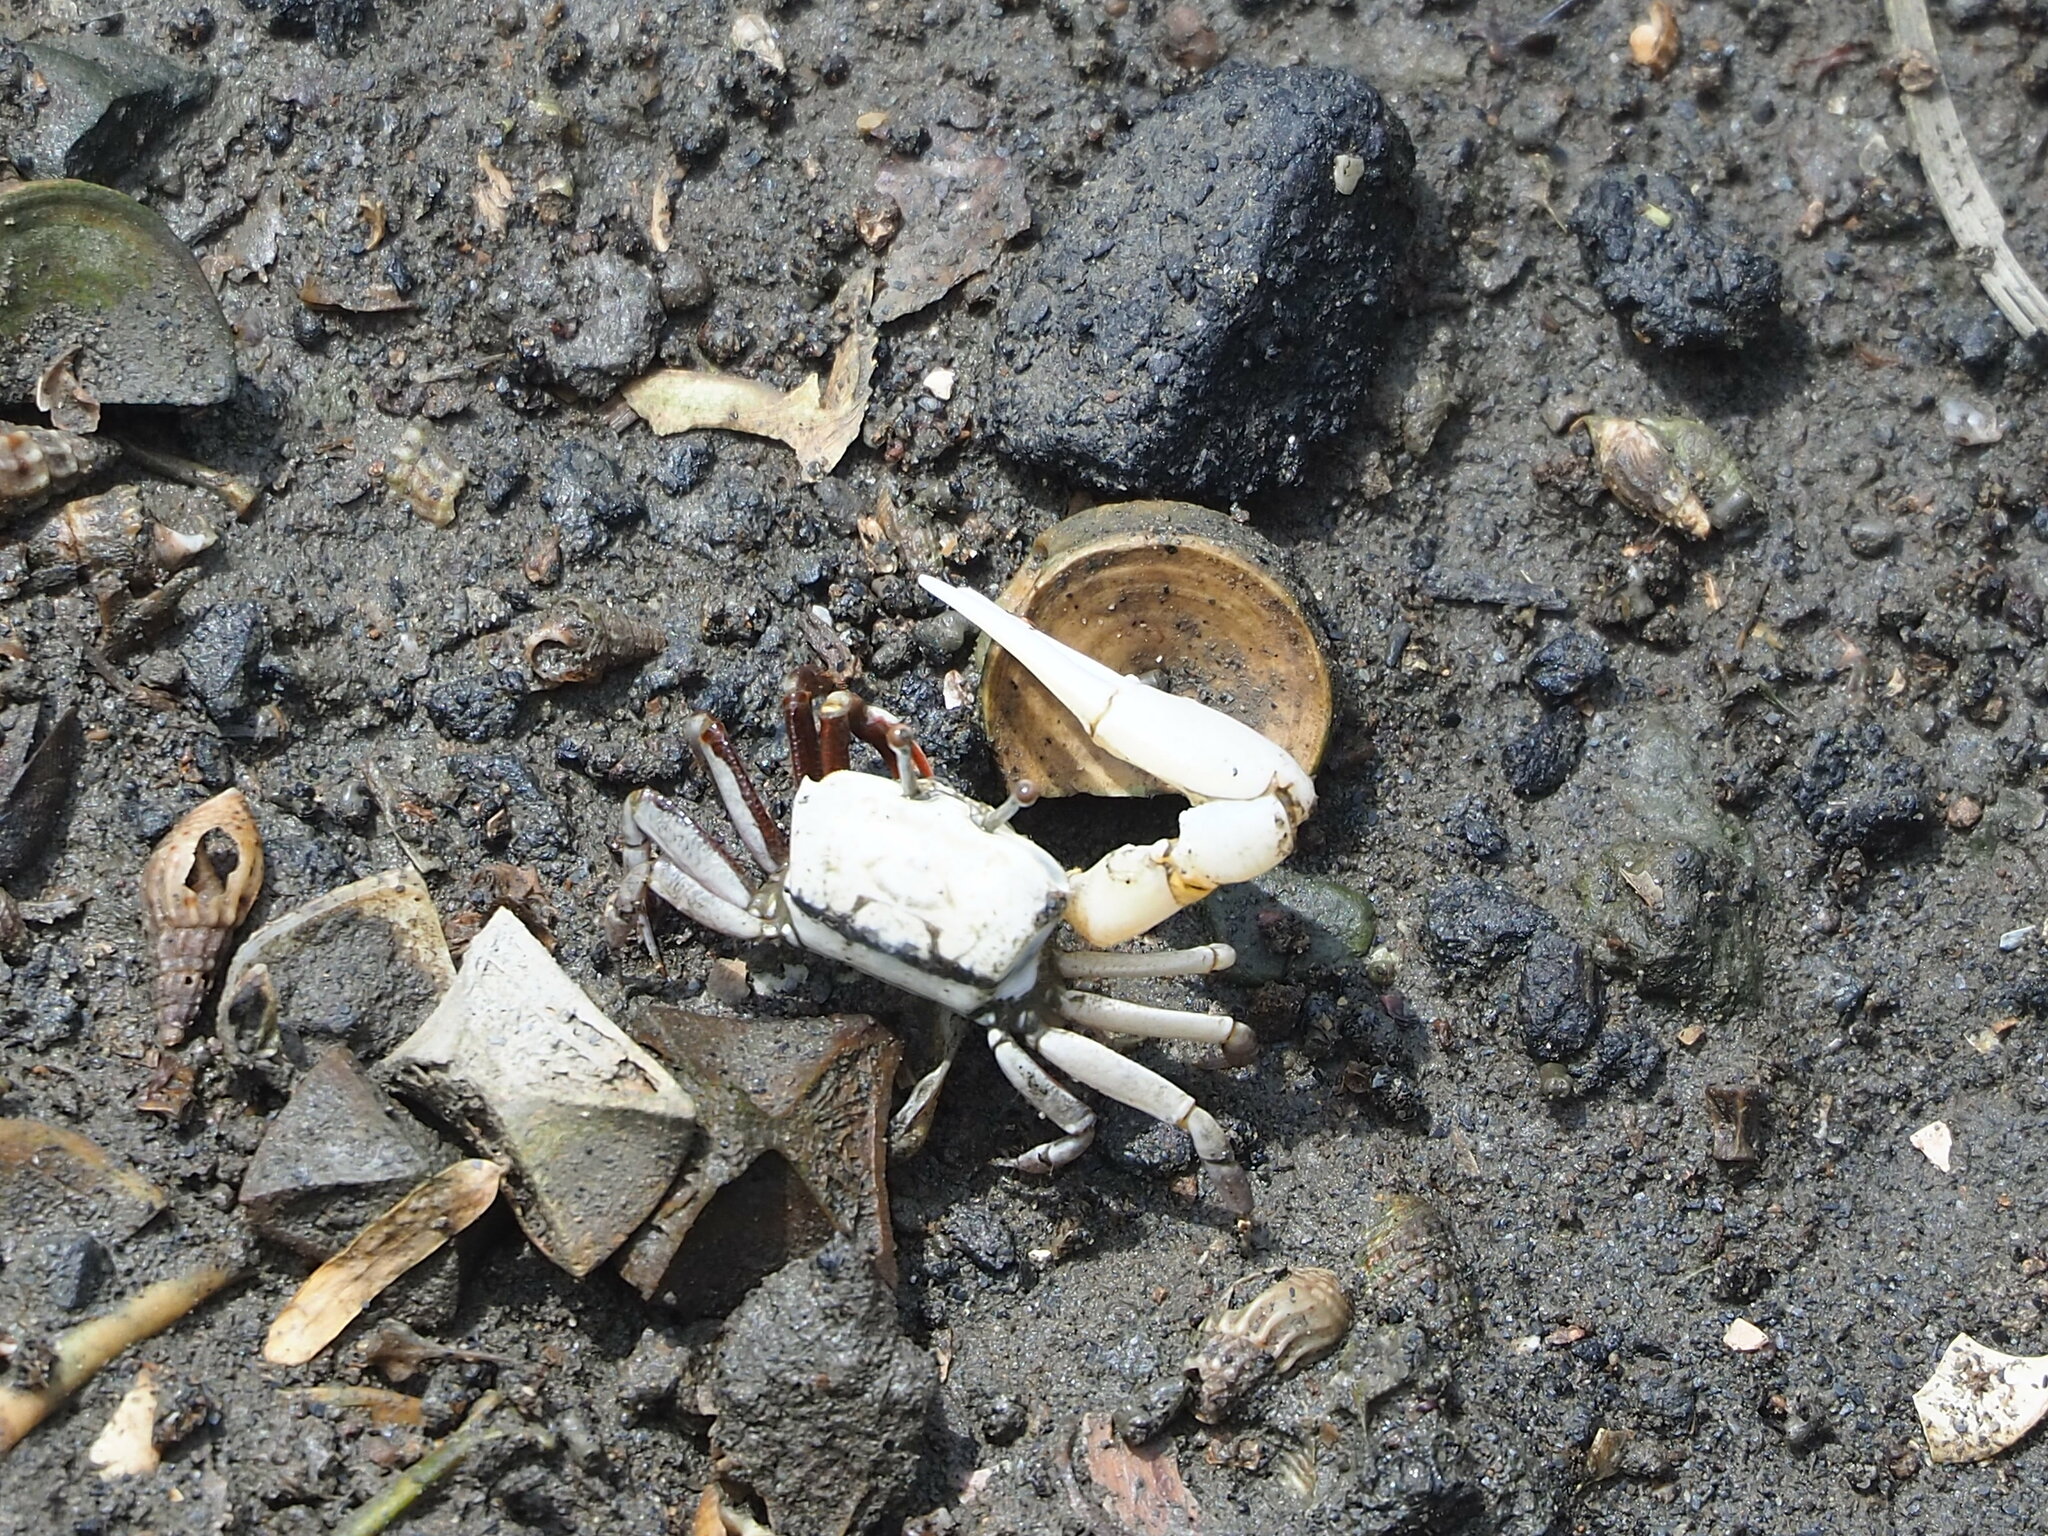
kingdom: Animalia
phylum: Arthropoda
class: Malacostraca
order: Decapoda
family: Ocypodidae
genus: Austruca
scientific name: Austruca lactea
